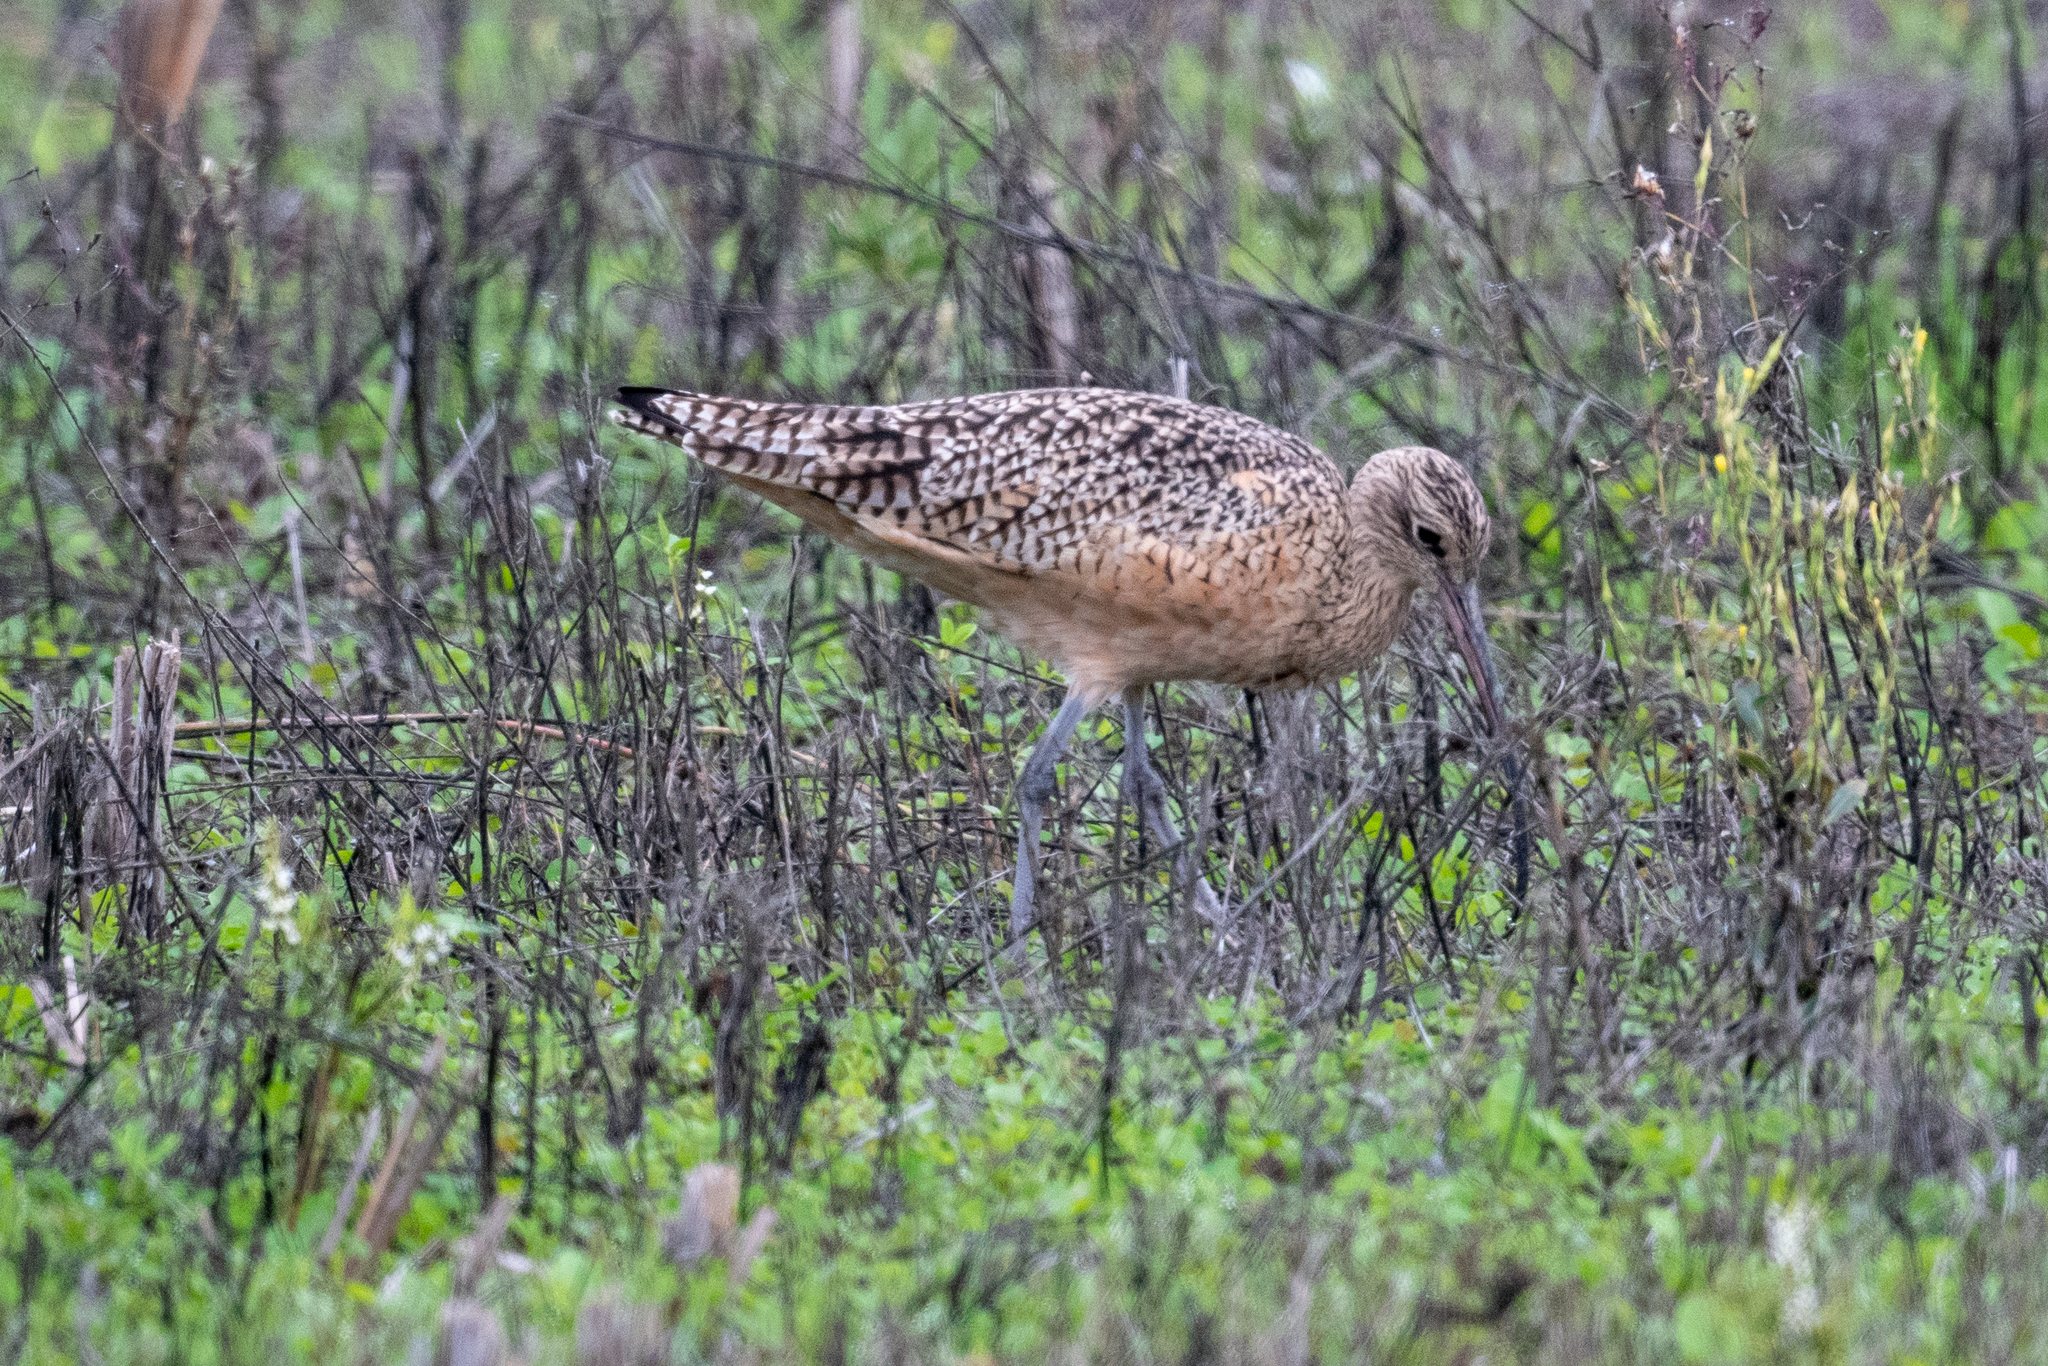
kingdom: Animalia
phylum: Chordata
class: Aves
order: Charadriiformes
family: Scolopacidae
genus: Numenius
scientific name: Numenius americanus
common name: Long-billed curlew
